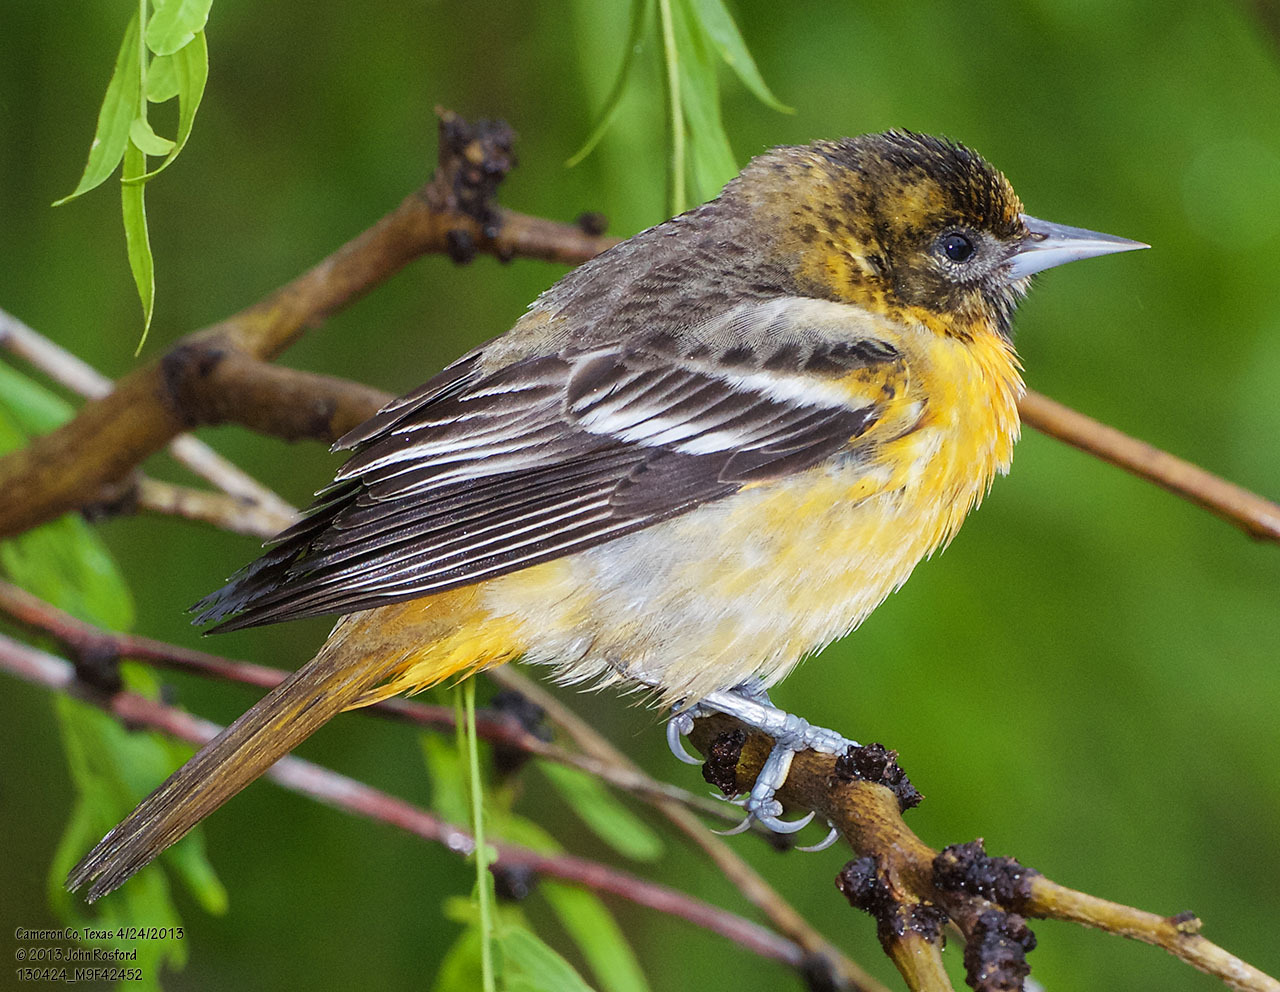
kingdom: Animalia
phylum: Chordata
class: Aves
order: Passeriformes
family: Icteridae
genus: Icterus
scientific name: Icterus galbula
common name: Baltimore oriole
